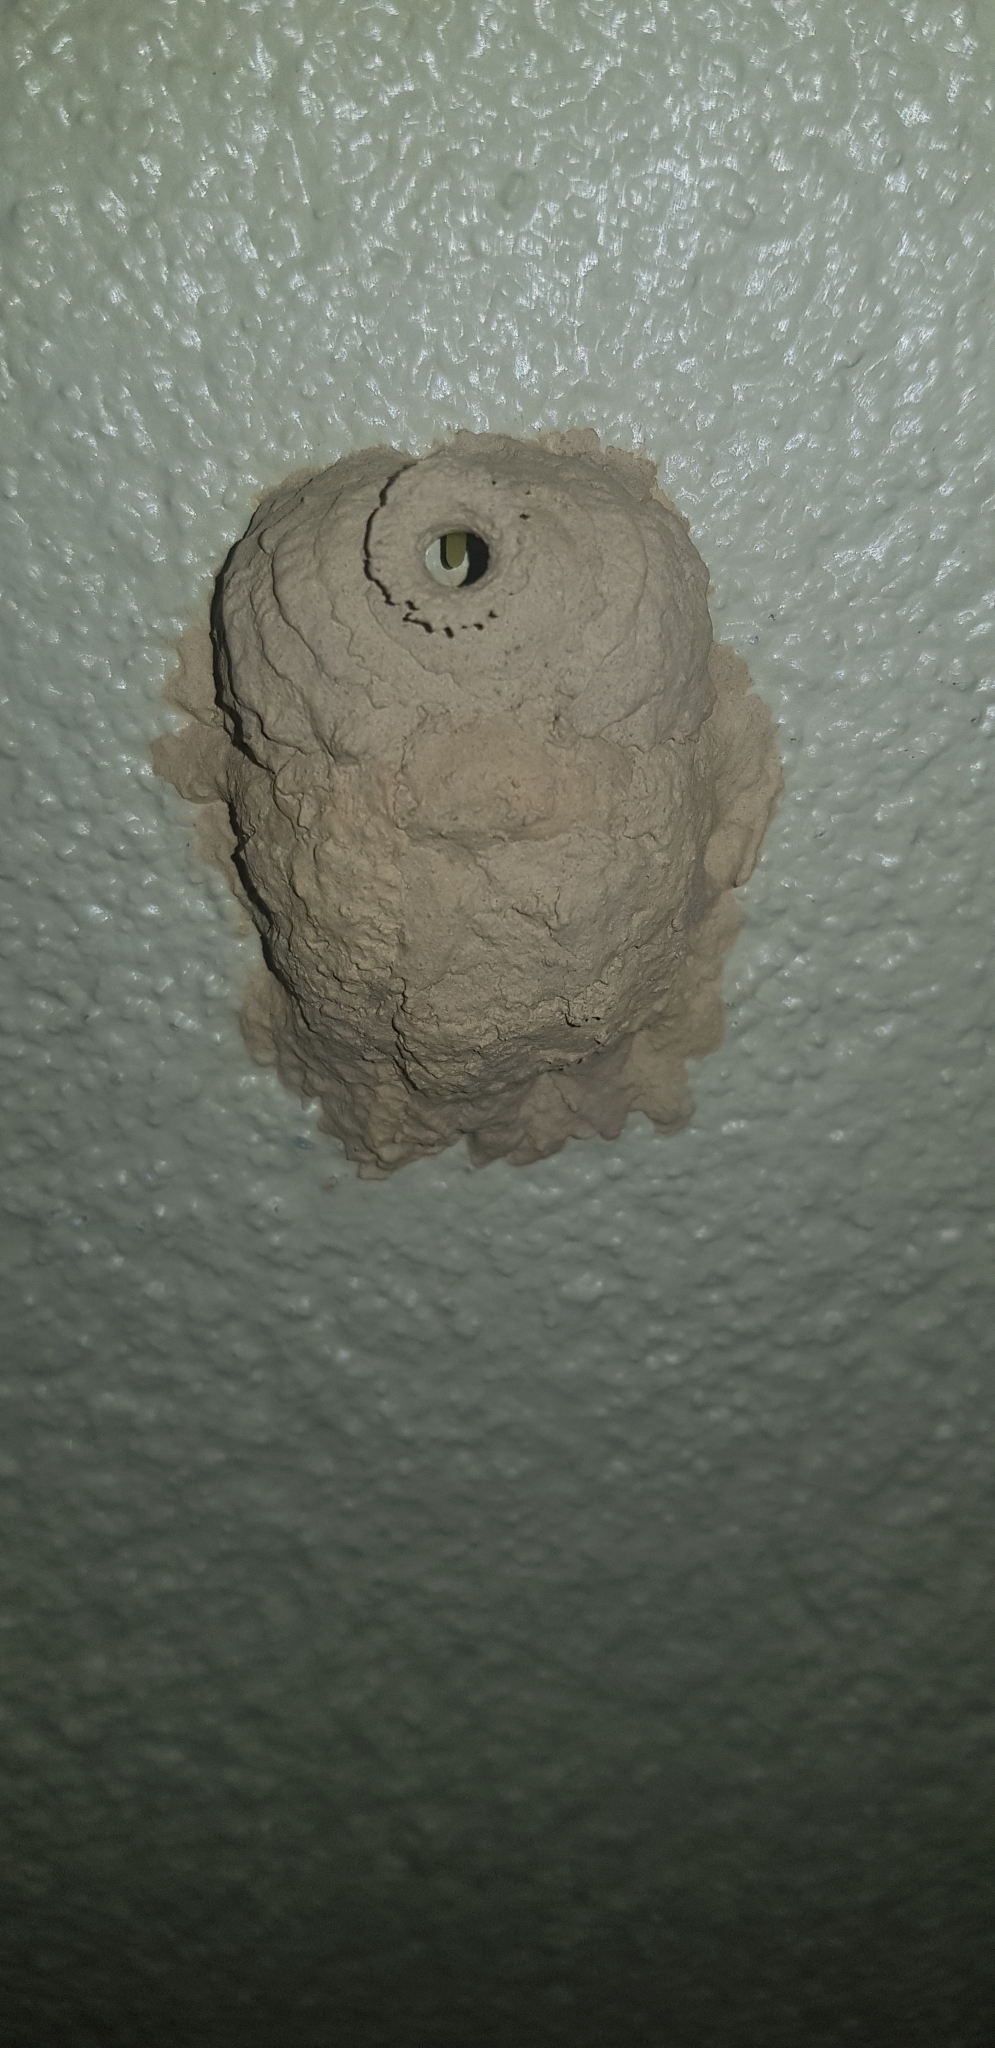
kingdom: Animalia
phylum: Arthropoda
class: Insecta
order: Hymenoptera
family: Eumenidae
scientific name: Eumenidae
